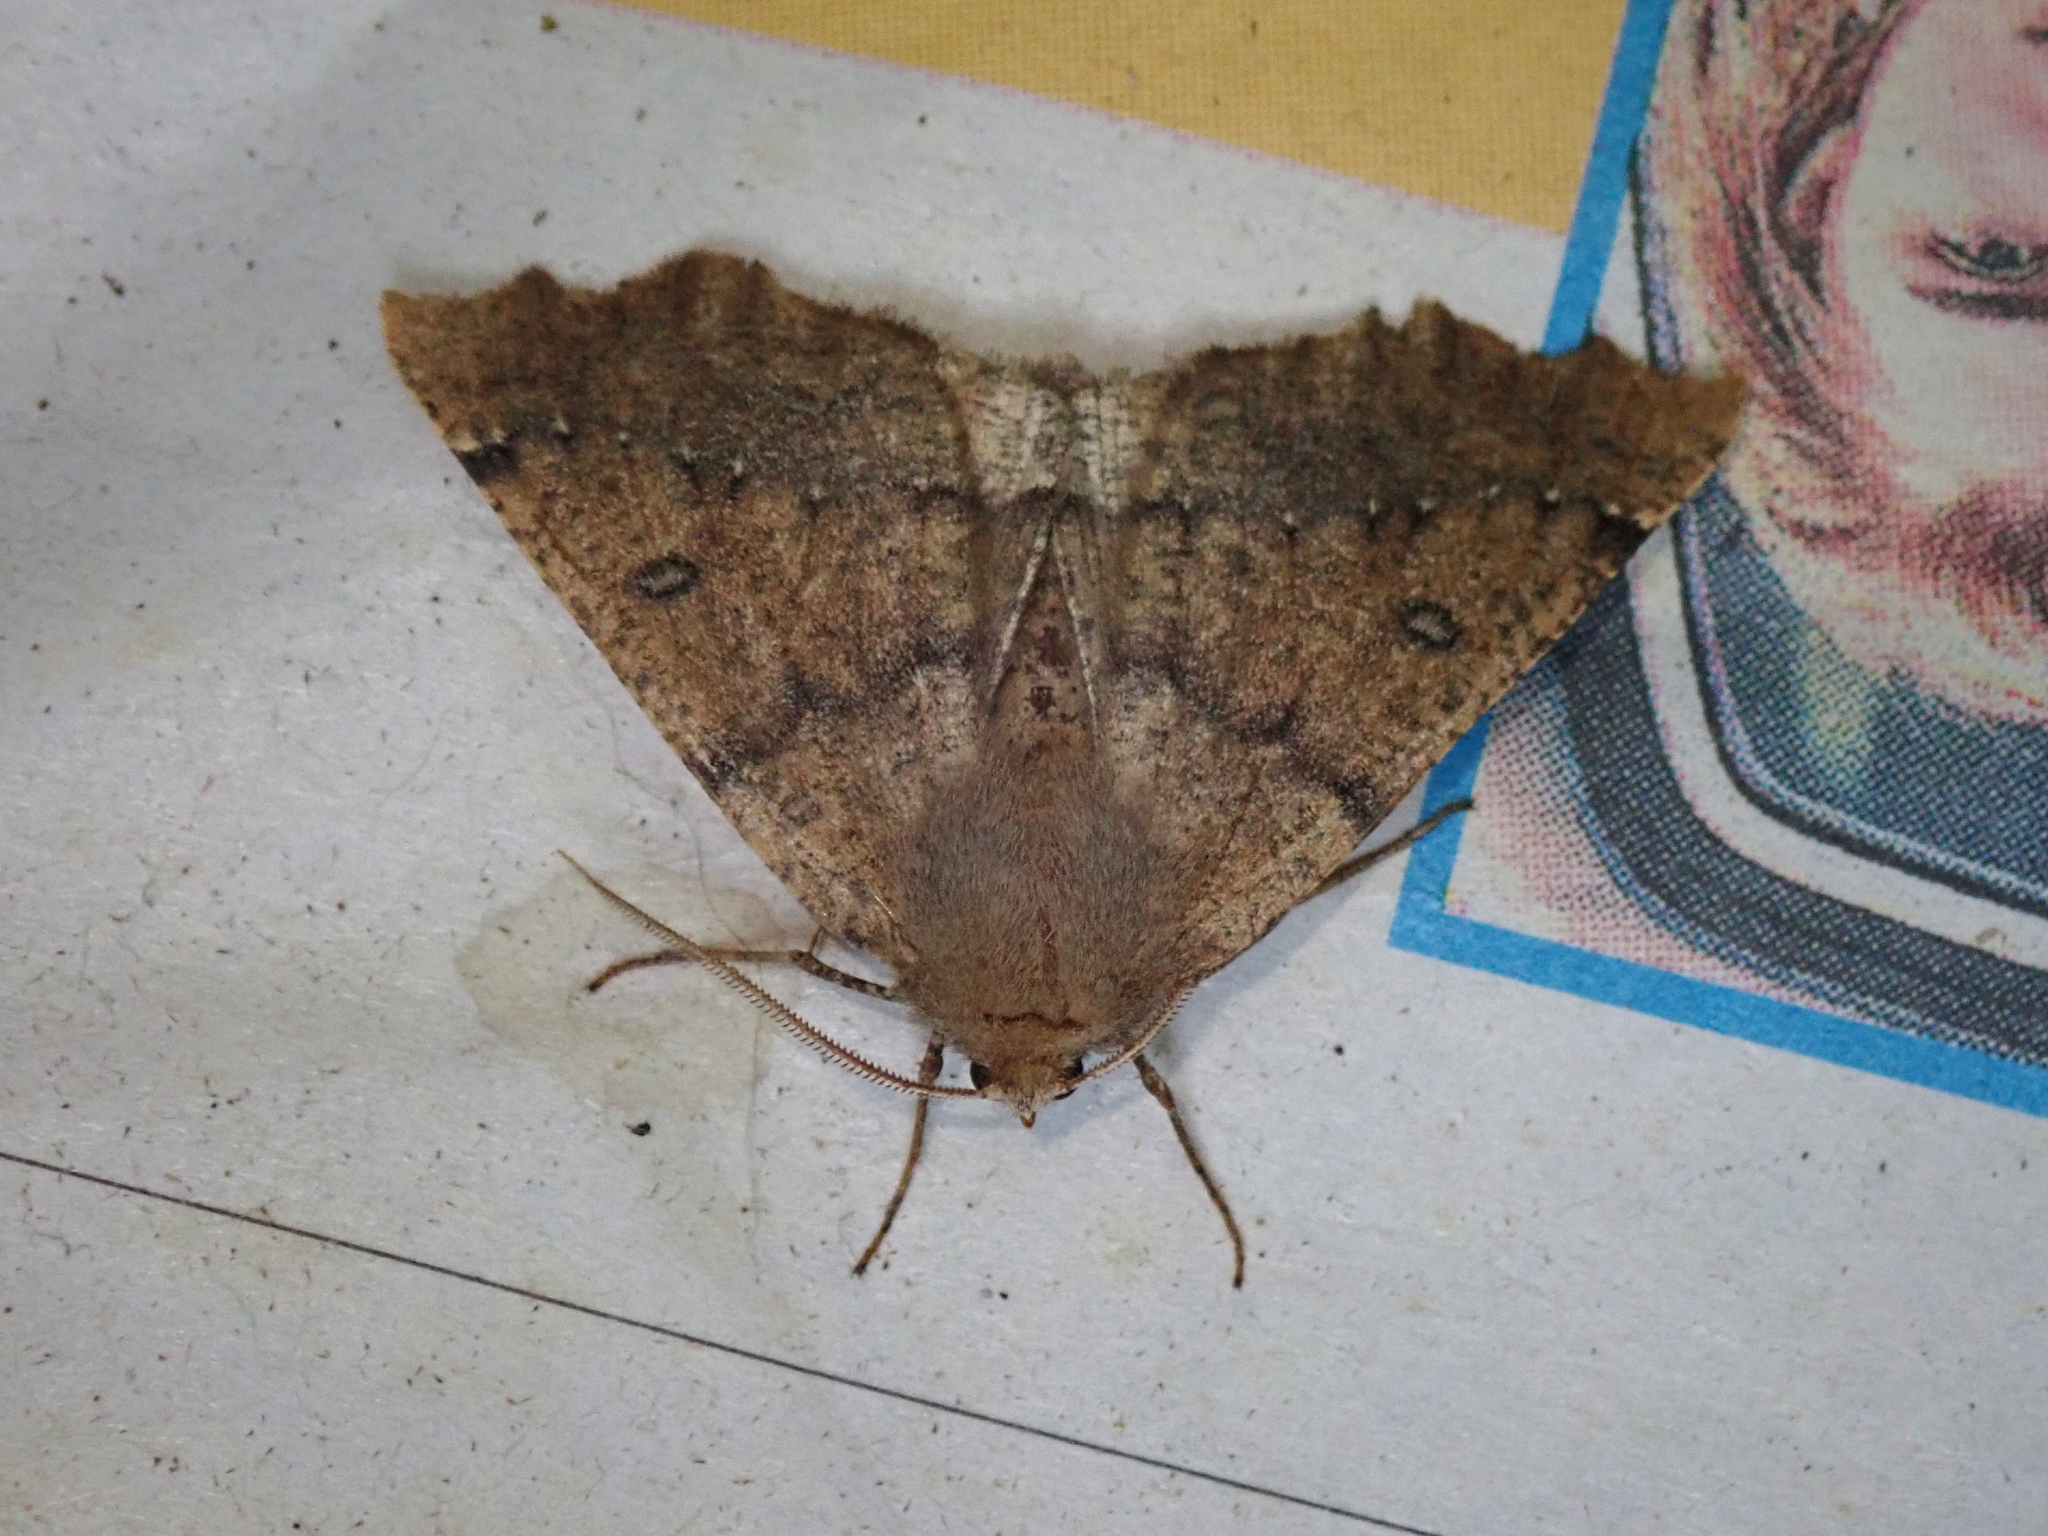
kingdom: Animalia
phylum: Arthropoda
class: Insecta
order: Lepidoptera
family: Geometridae
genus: Odontopera
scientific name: Odontopera bidentata
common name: Scalloped hazel
